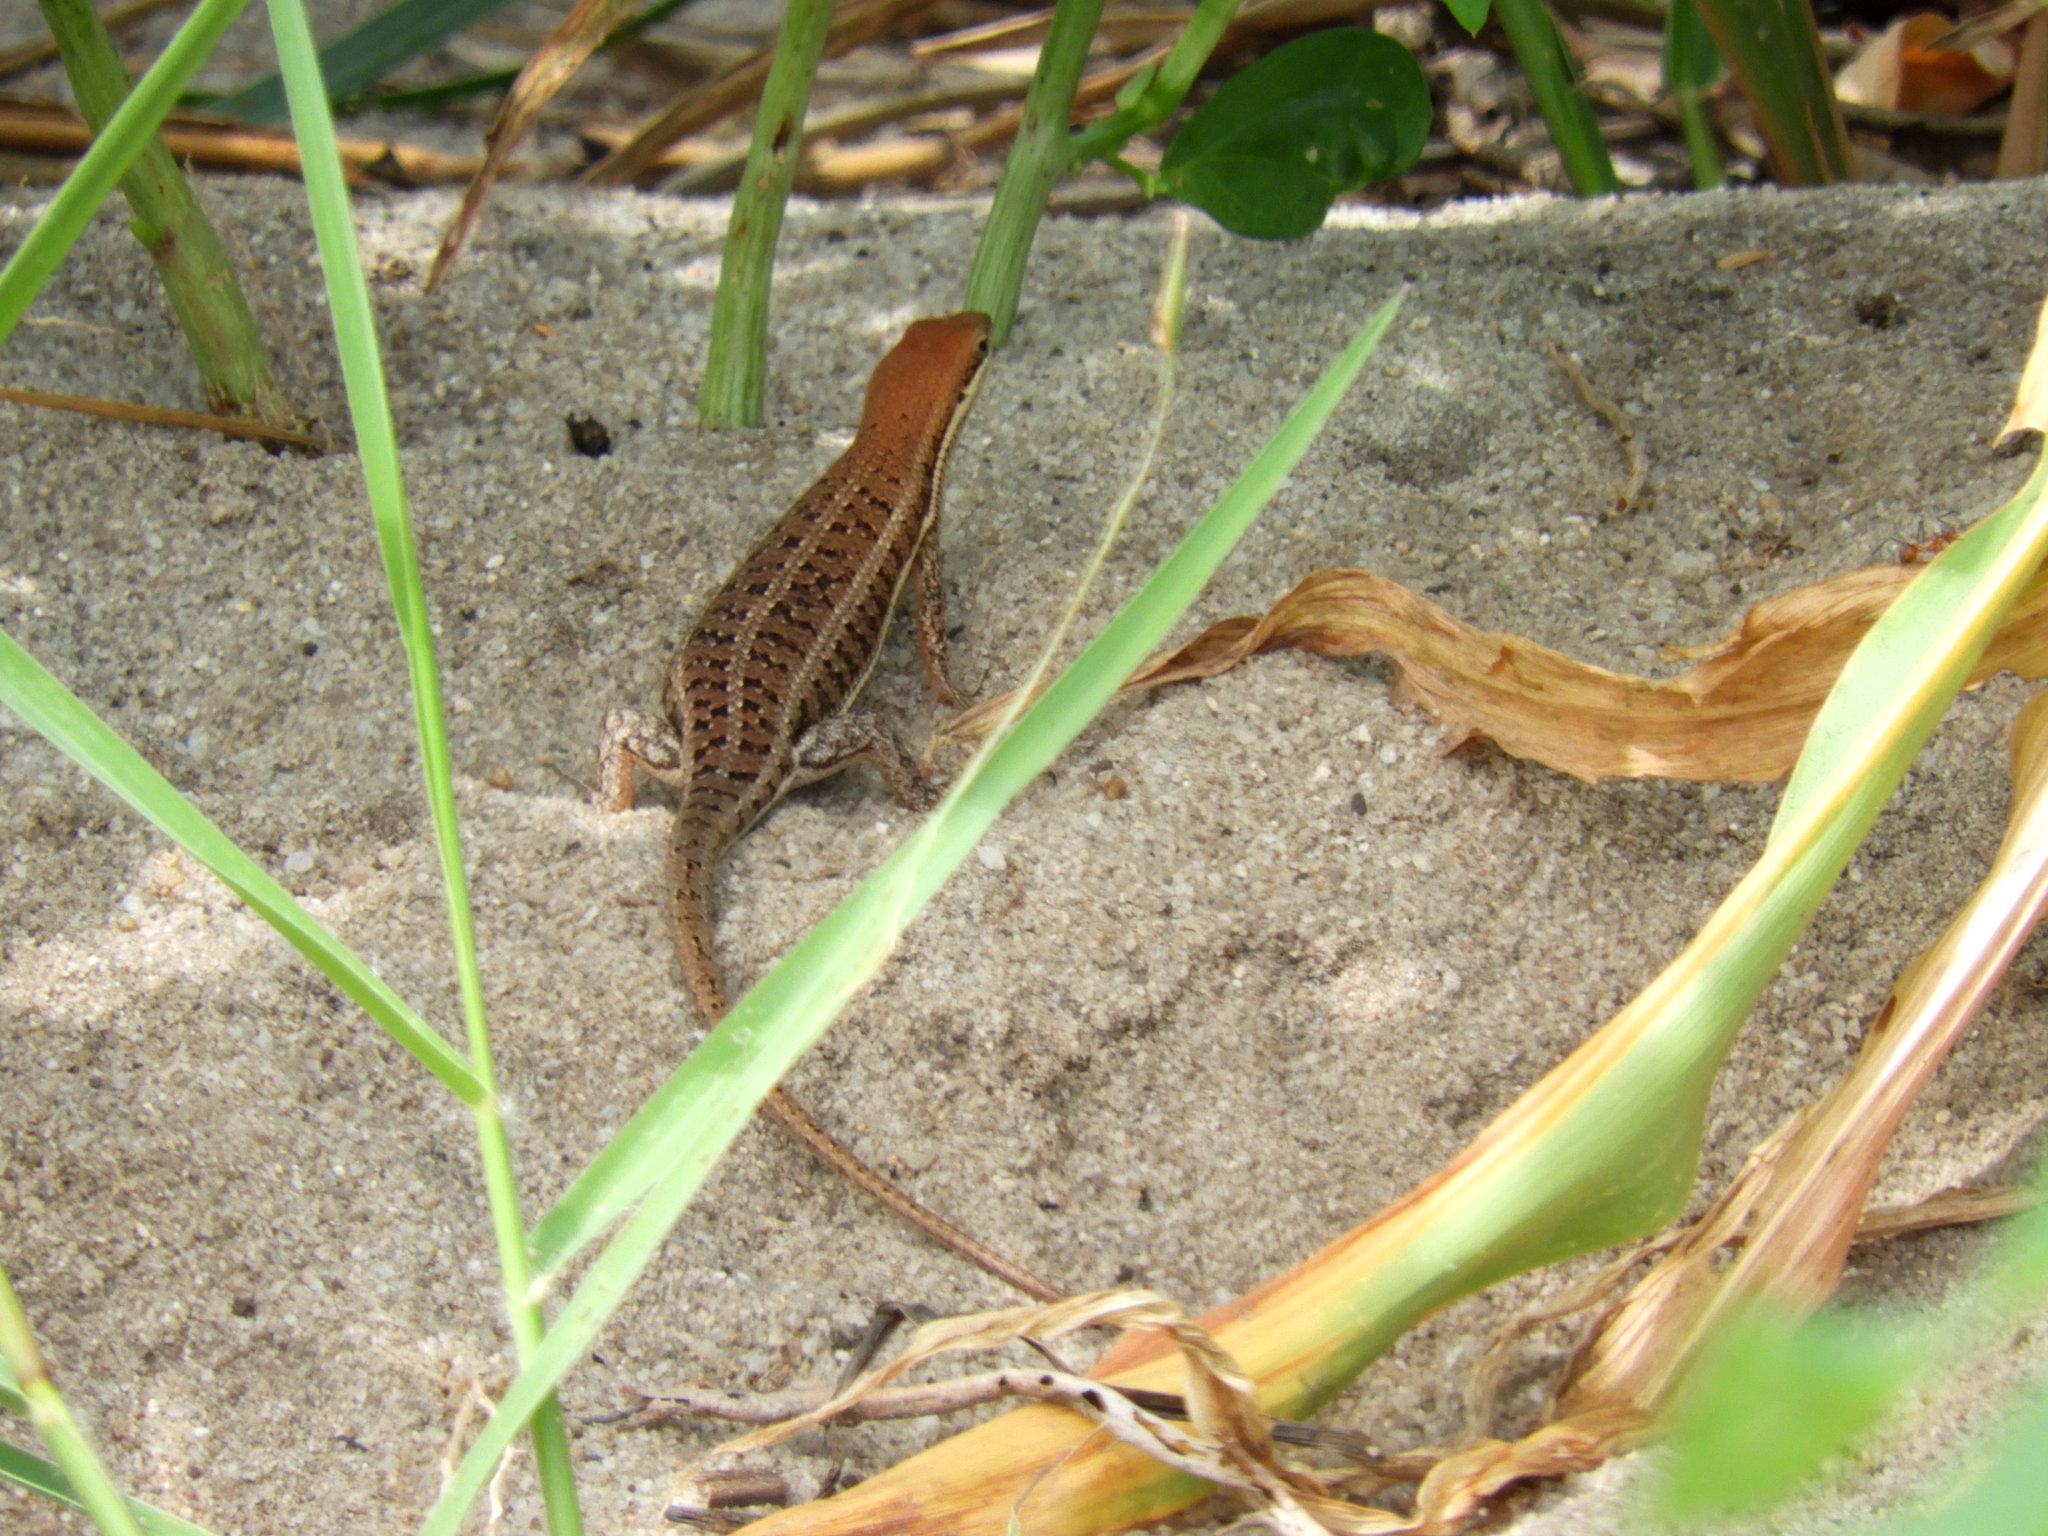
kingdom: Animalia
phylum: Chordata
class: Squamata
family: Scincidae
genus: Trachylepis
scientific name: Trachylepis varia
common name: Eastern variable skink
